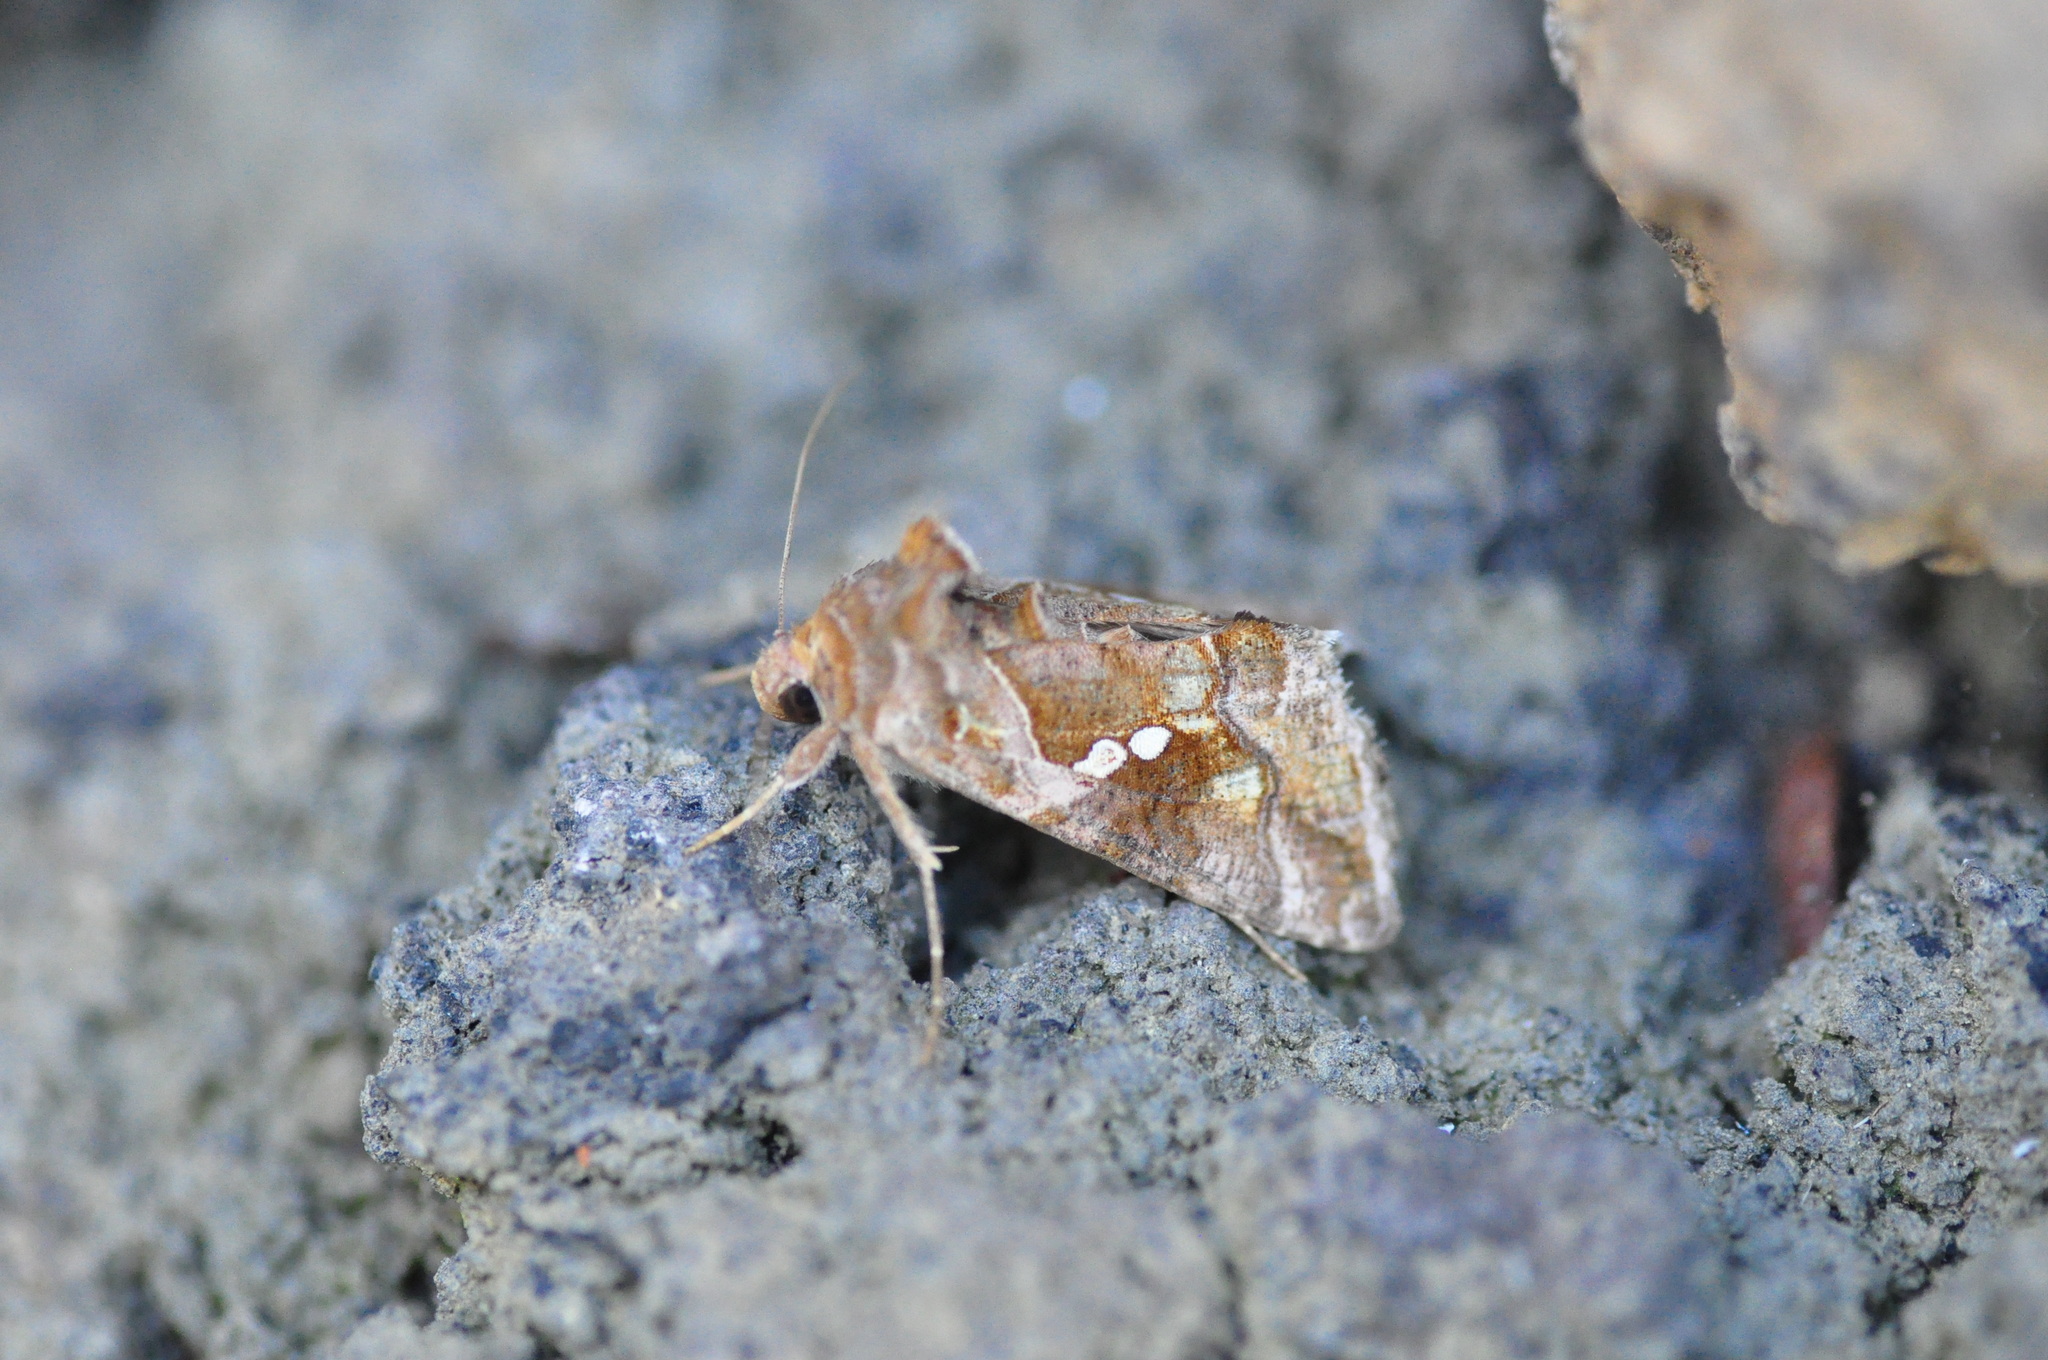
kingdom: Animalia
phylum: Arthropoda
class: Insecta
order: Lepidoptera
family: Noctuidae
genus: Chrysodeixis
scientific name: Chrysodeixis chalcites
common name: Golden twin-spot
